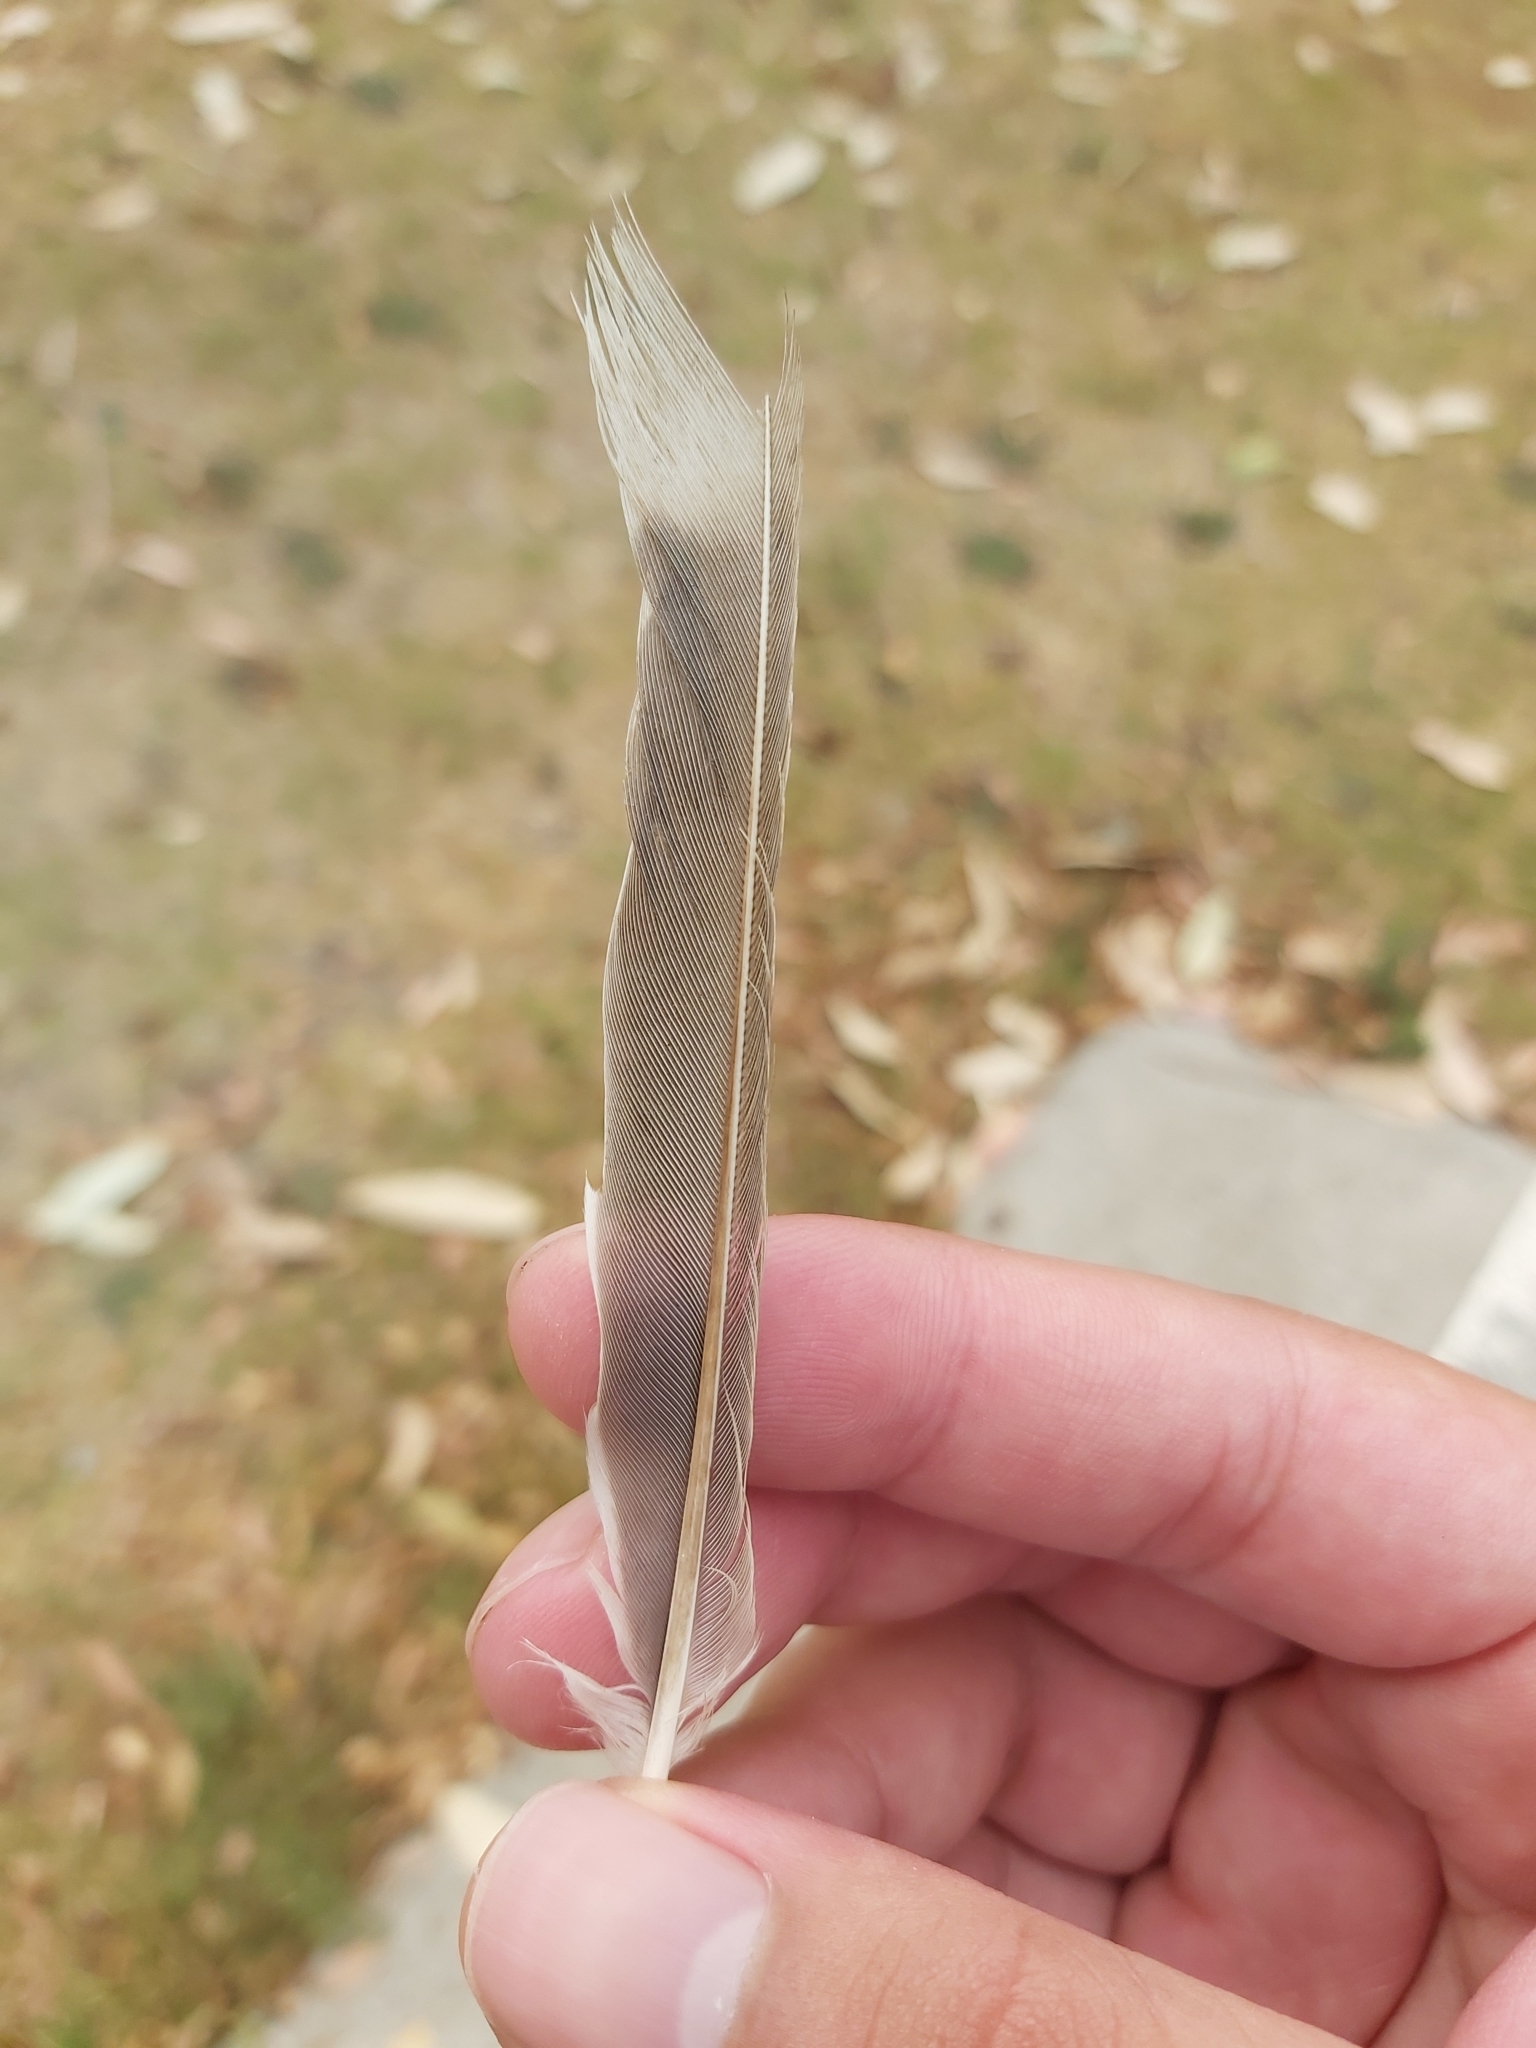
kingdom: Animalia
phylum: Chordata
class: Aves
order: Passeriformes
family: Meliphagidae
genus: Manorina
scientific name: Manorina melanocephala
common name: Noisy miner
